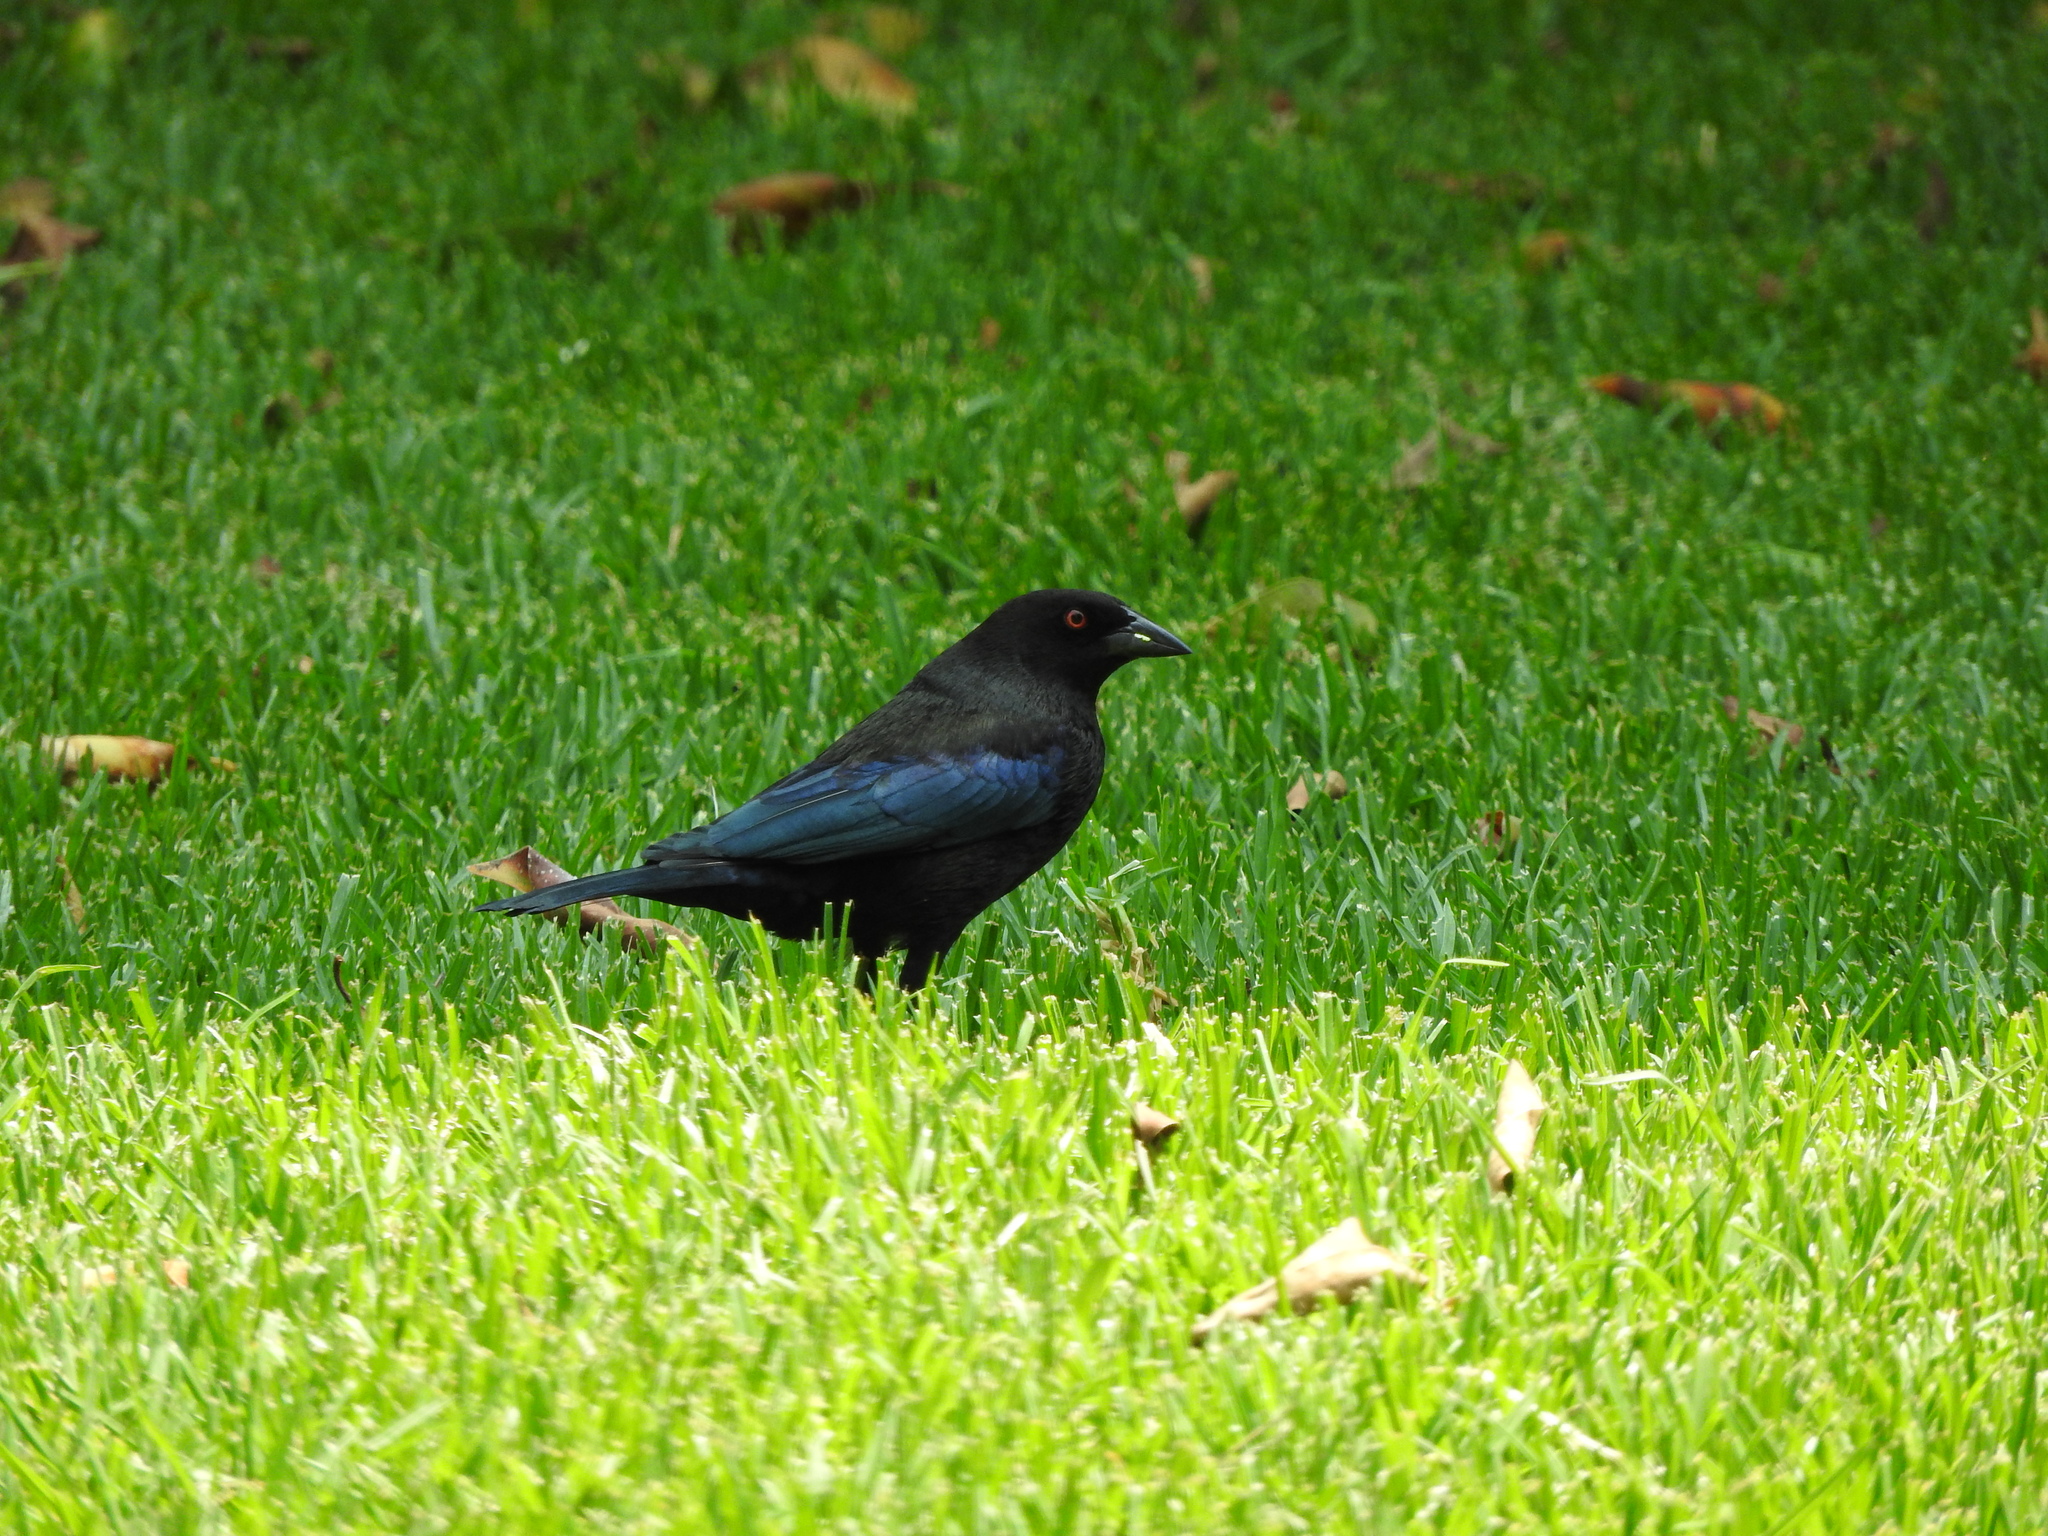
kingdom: Animalia
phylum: Chordata
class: Aves
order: Passeriformes
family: Icteridae
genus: Molothrus
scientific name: Molothrus aeneus
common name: Bronzed cowbird
